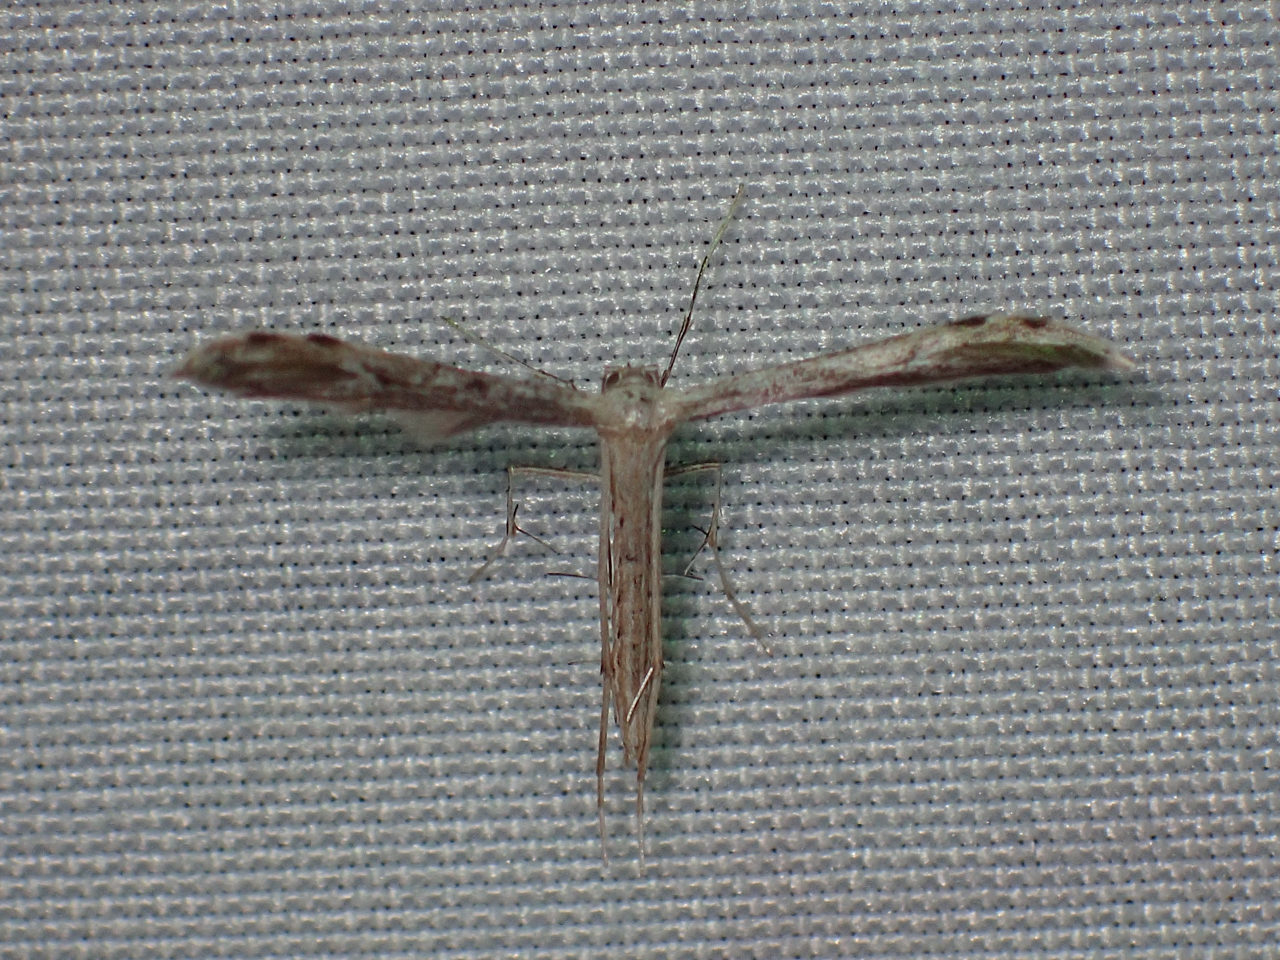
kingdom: Animalia
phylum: Arthropoda
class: Insecta
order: Lepidoptera
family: Pterophoridae
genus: Pselnophorus
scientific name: Pselnophorus belfragei
